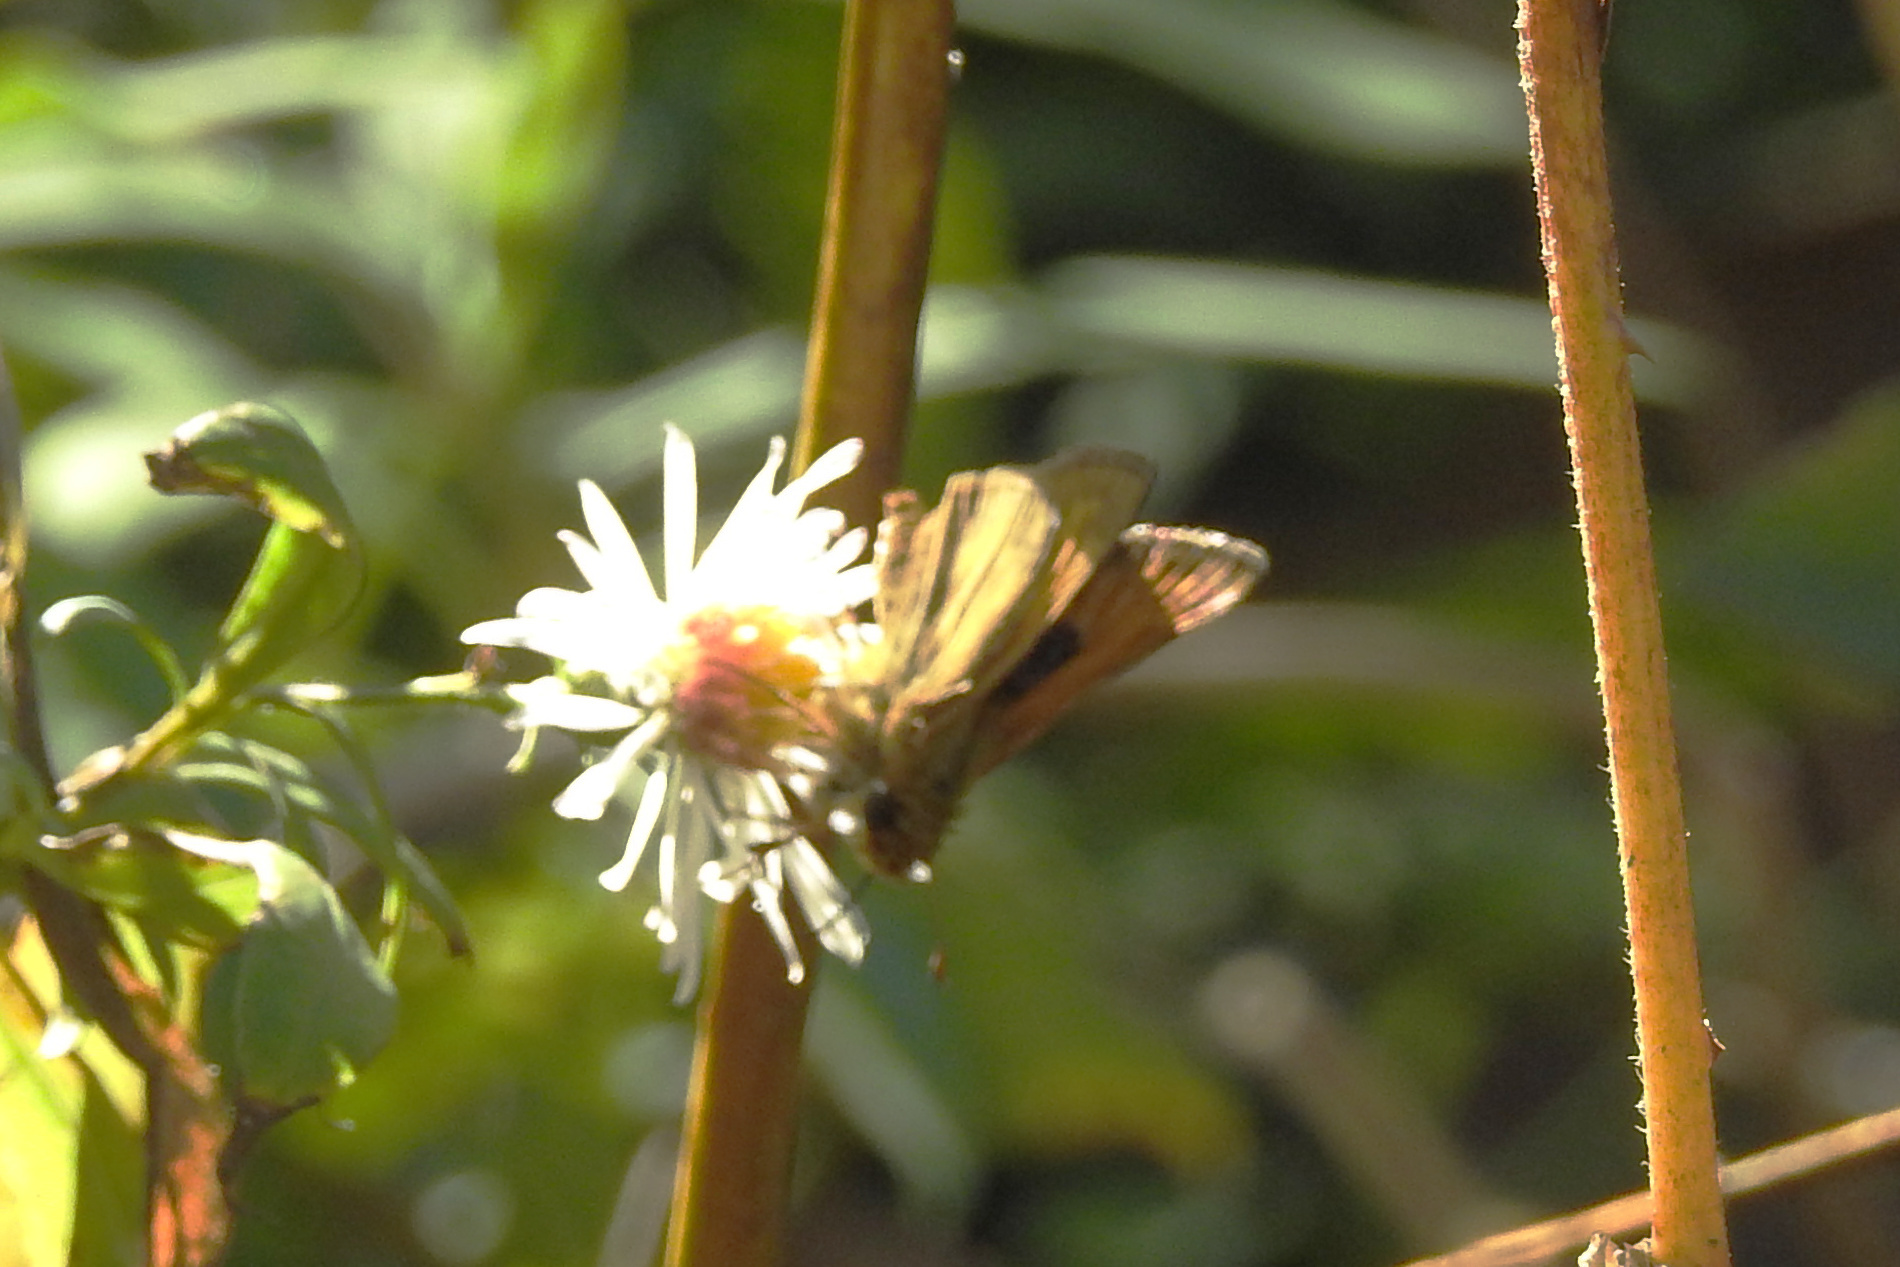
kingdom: Animalia
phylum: Arthropoda
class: Insecta
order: Lepidoptera
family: Hesperiidae
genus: Atalopedes
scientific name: Atalopedes
